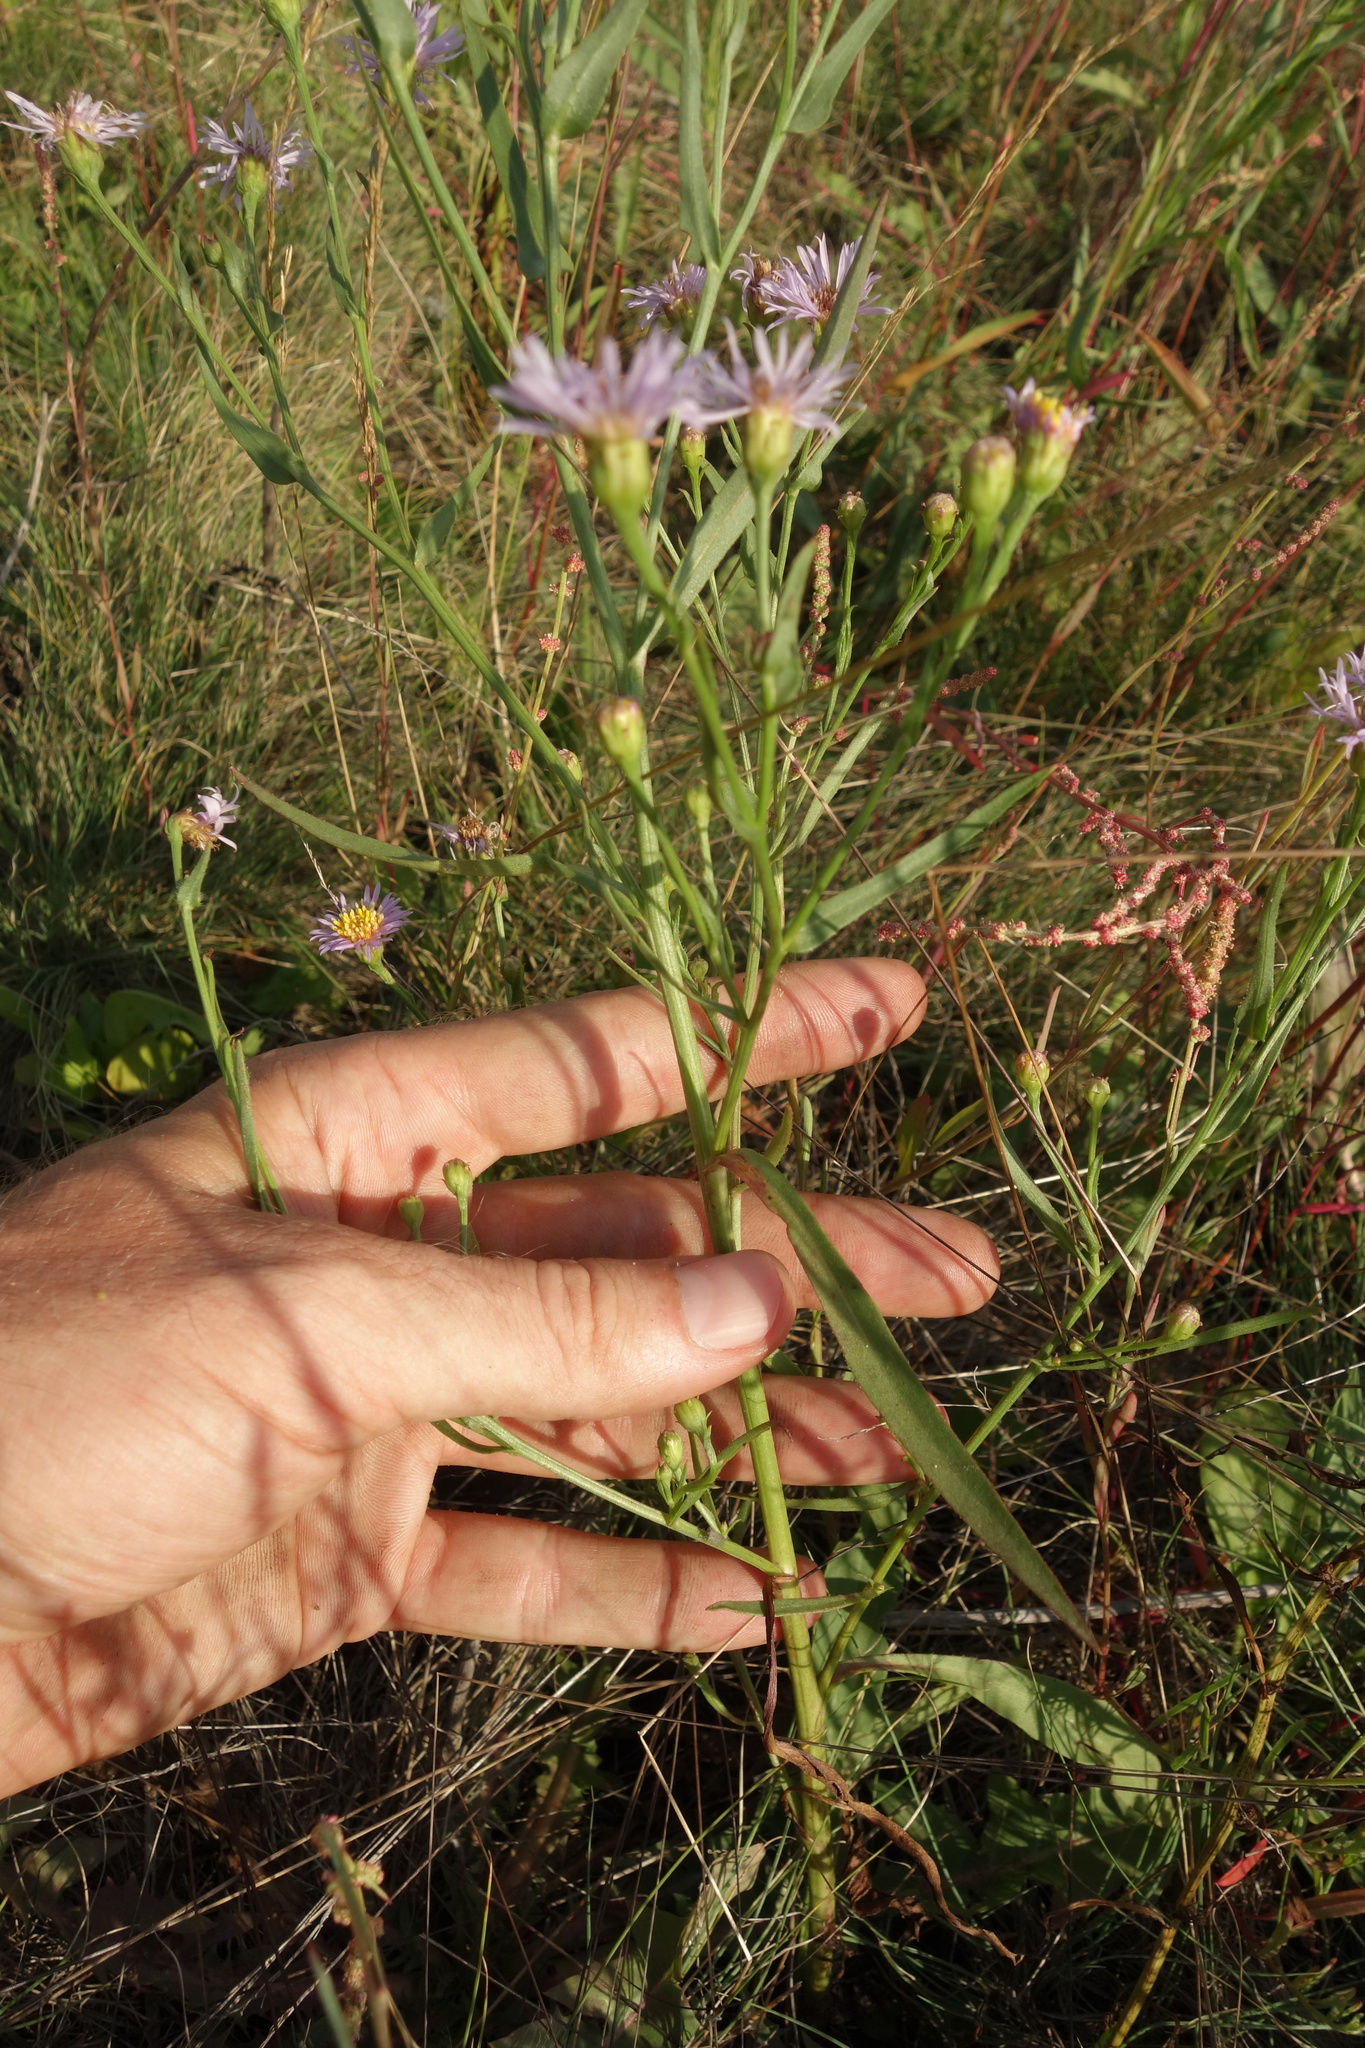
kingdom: Plantae
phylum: Tracheophyta
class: Magnoliopsida
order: Asterales
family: Asteraceae
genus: Tripolium
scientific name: Tripolium pannonicum
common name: Sea aster
